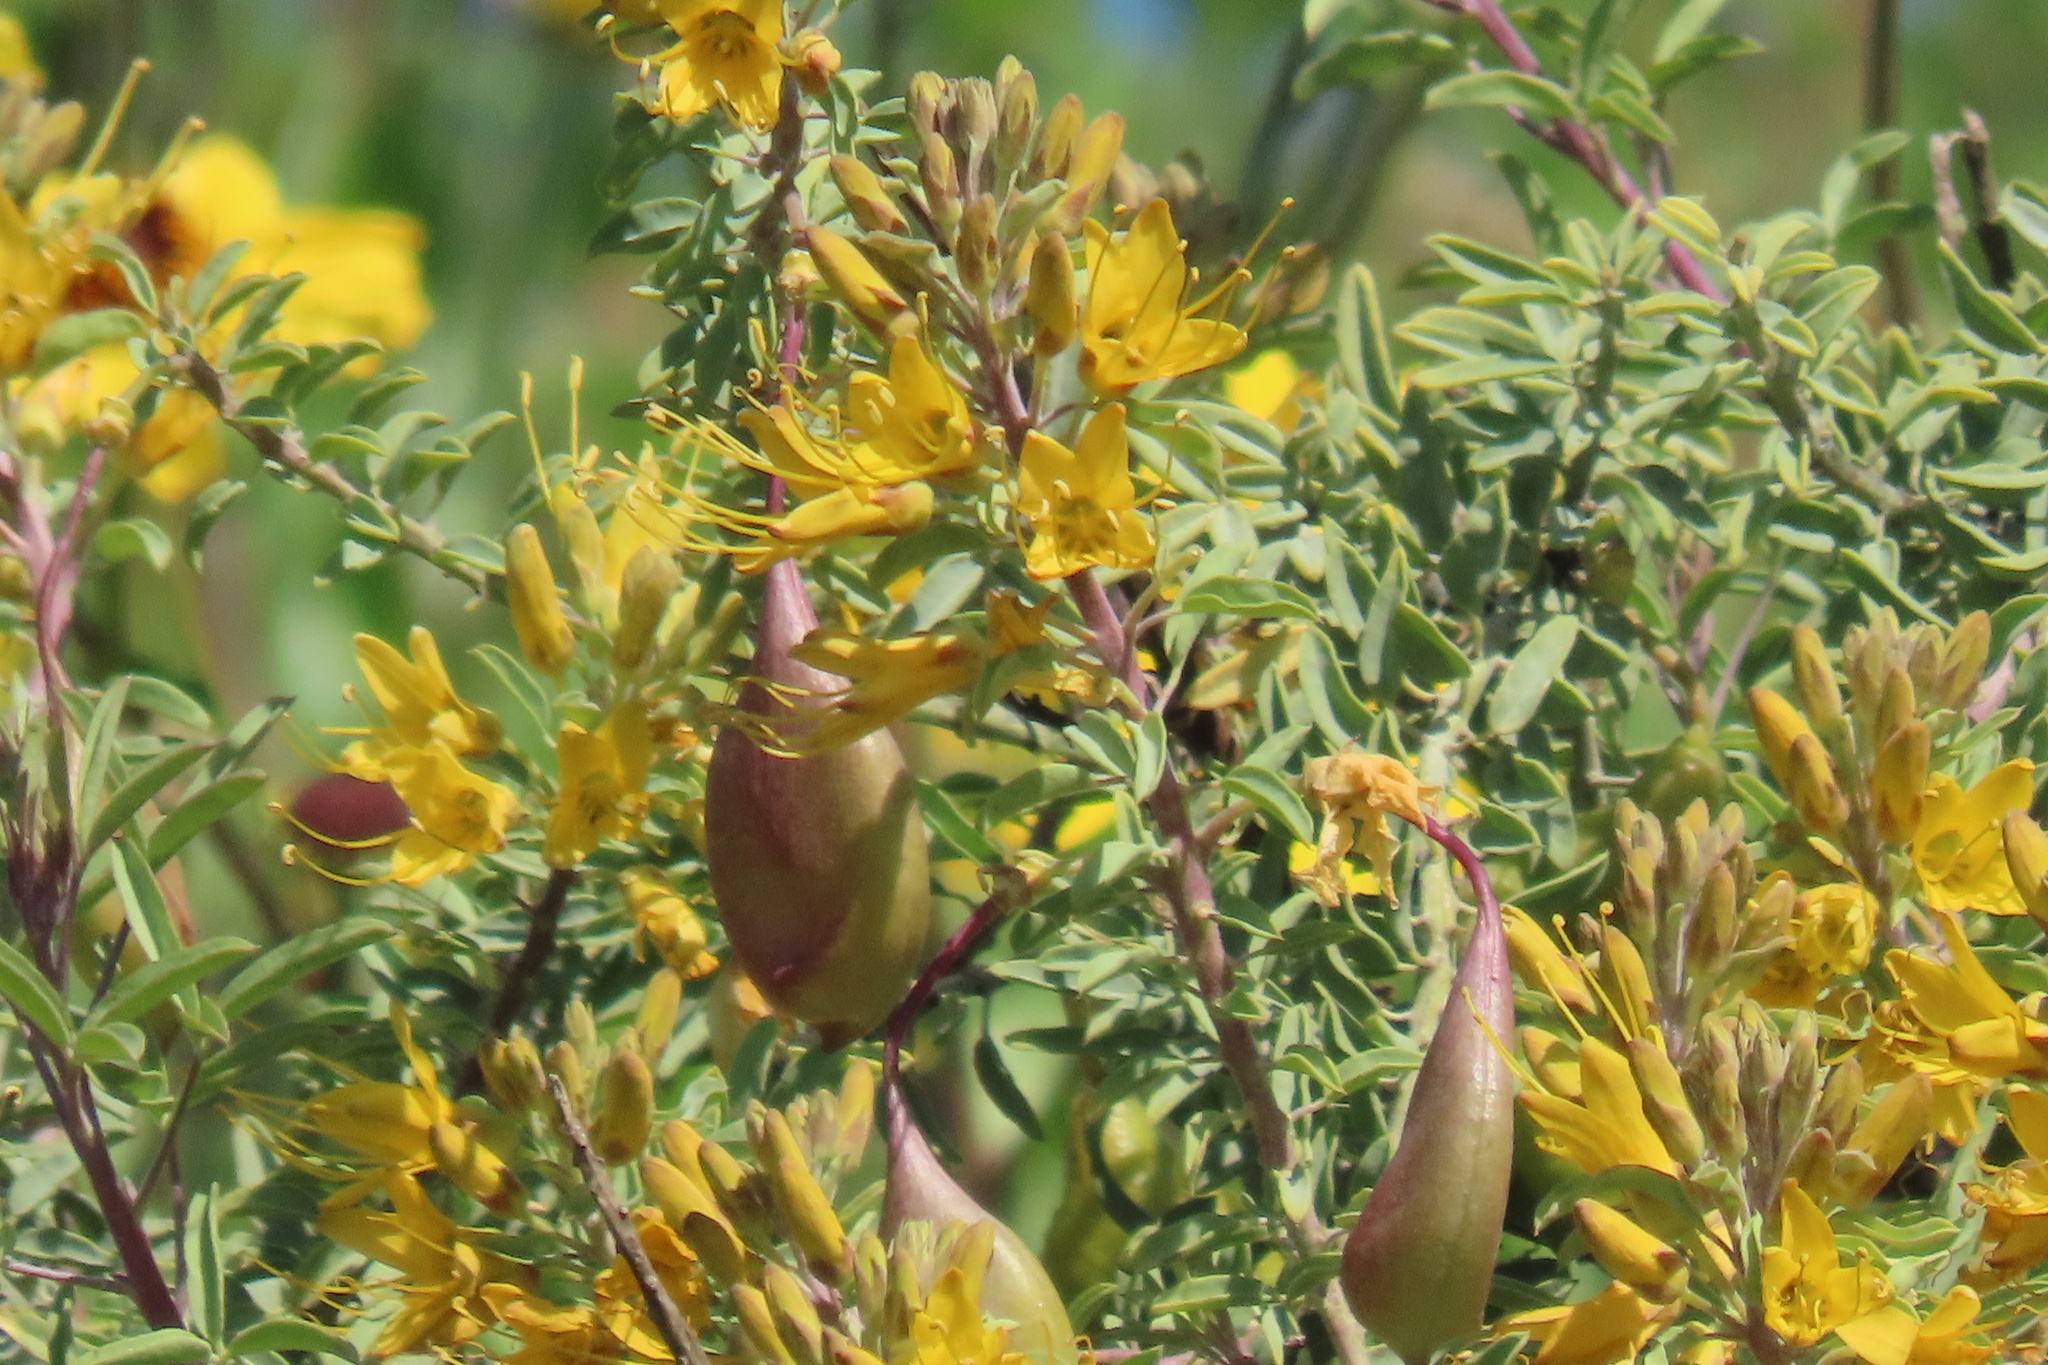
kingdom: Plantae
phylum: Tracheophyta
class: Magnoliopsida
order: Brassicales
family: Cleomaceae
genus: Cleomella
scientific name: Cleomella arborea
